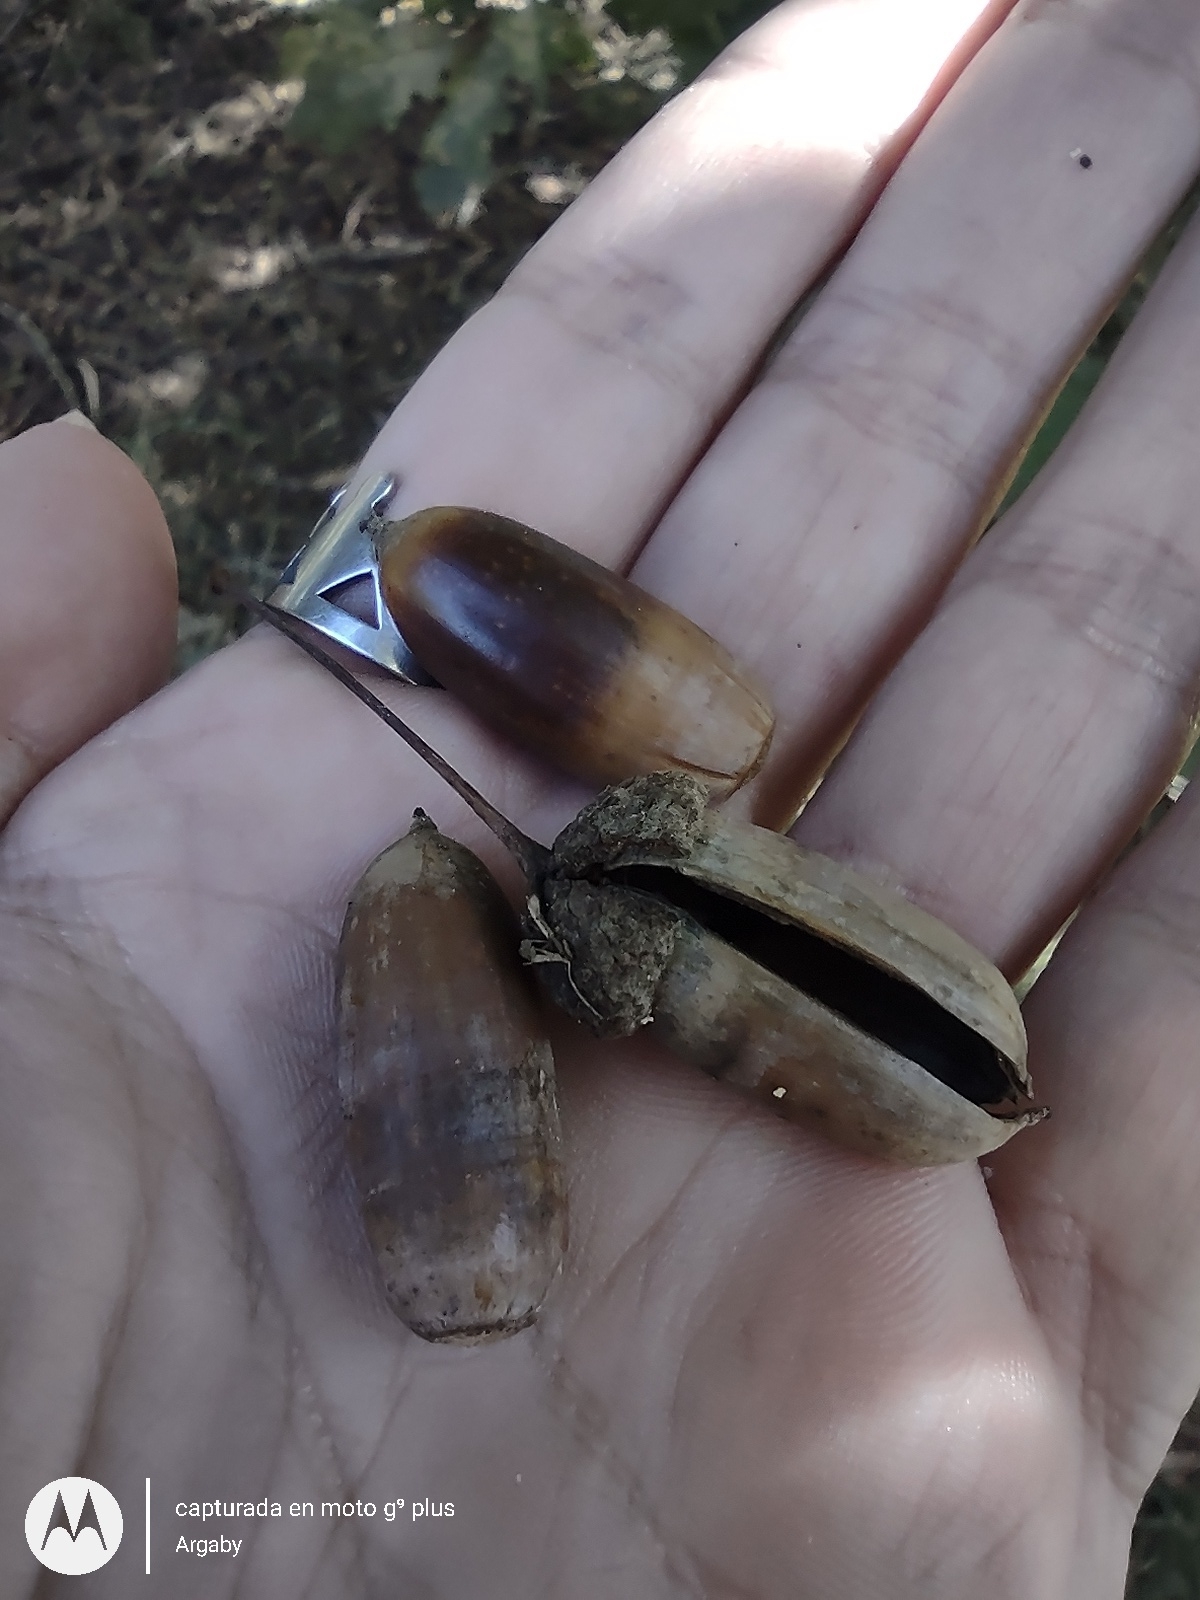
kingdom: Plantae
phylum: Tracheophyta
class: Magnoliopsida
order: Fagales
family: Fagaceae
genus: Quercus
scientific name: Quercus robur
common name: Pedunculate oak
